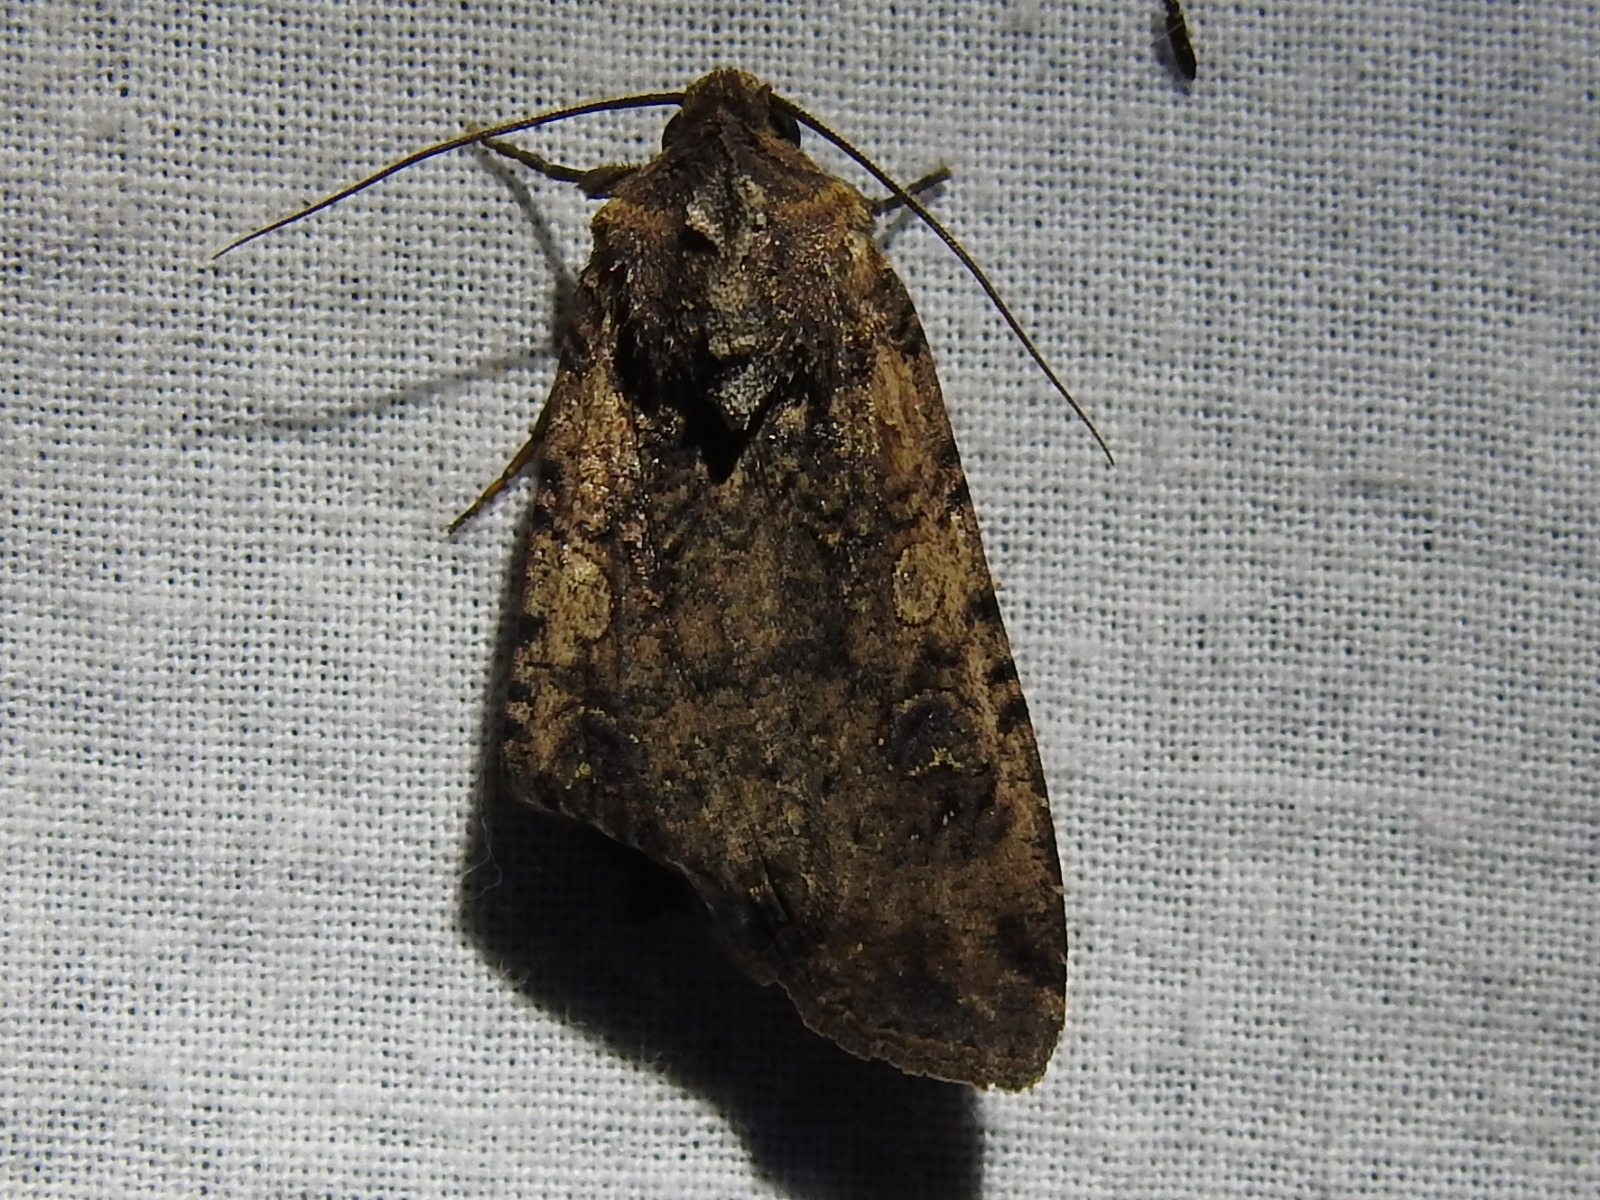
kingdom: Animalia
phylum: Arthropoda
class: Insecta
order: Lepidoptera
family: Noctuidae
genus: Peridroma
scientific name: Peridroma saucia
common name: Pearly underwing
